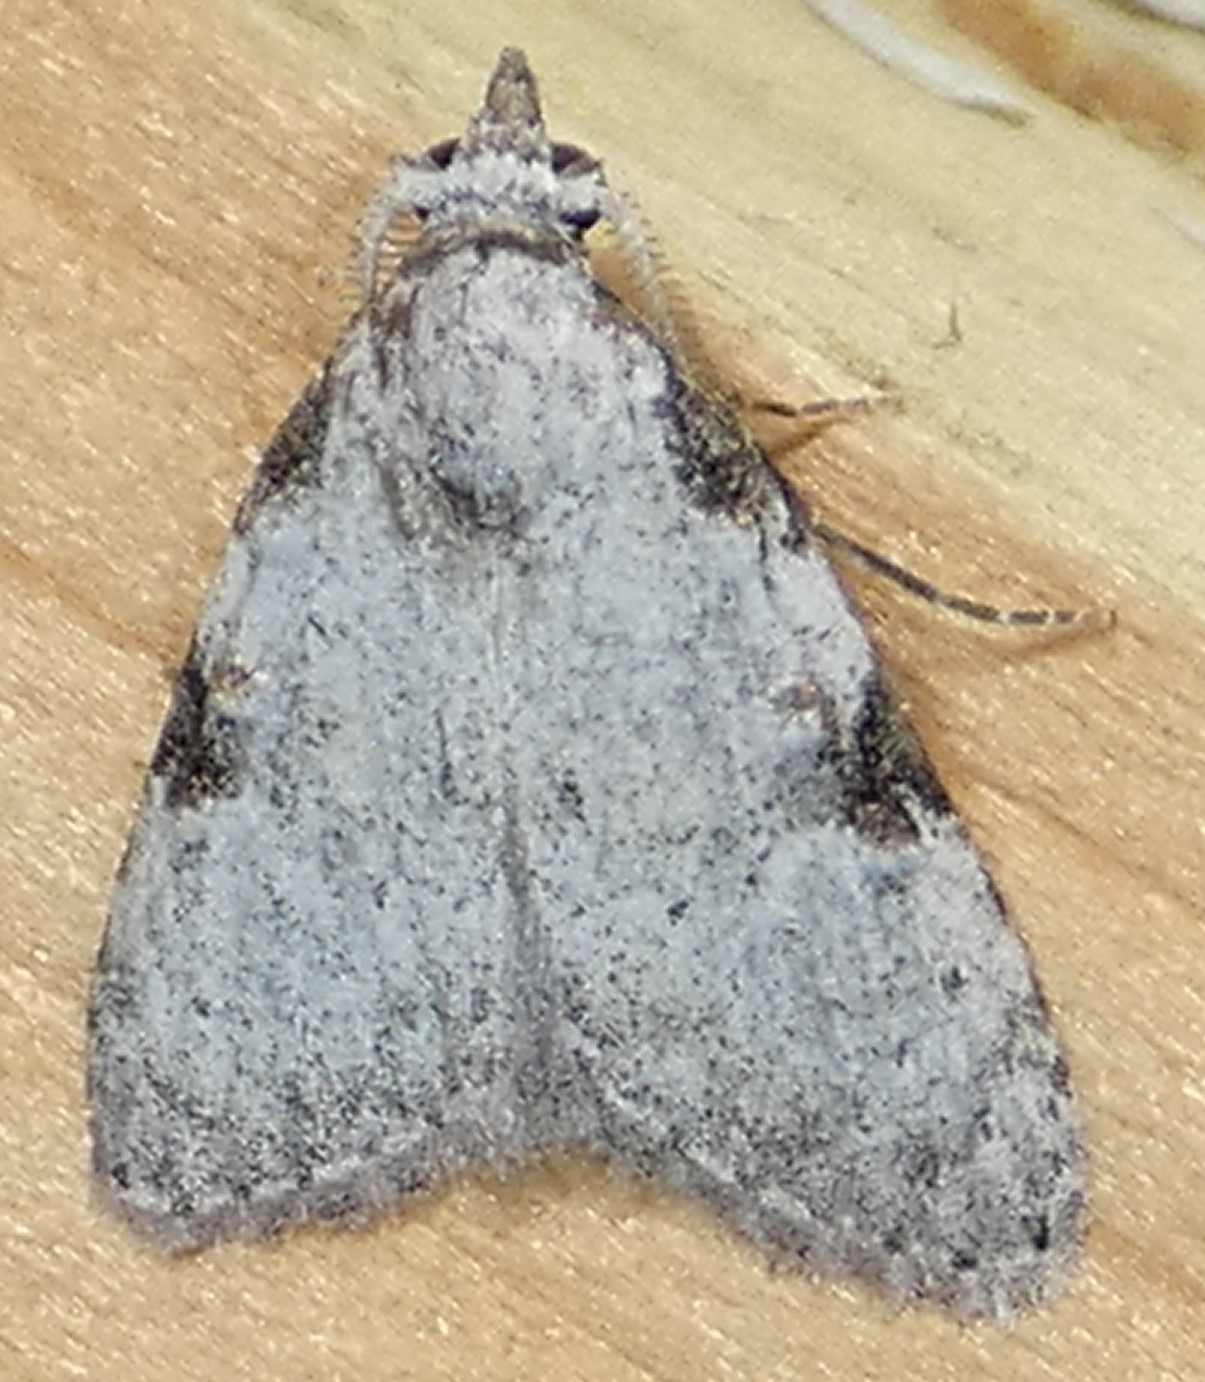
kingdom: Animalia
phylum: Arthropoda
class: Insecta
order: Lepidoptera
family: Nolidae
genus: Meganola
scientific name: Meganola minuscula
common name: Confused meganola moth
